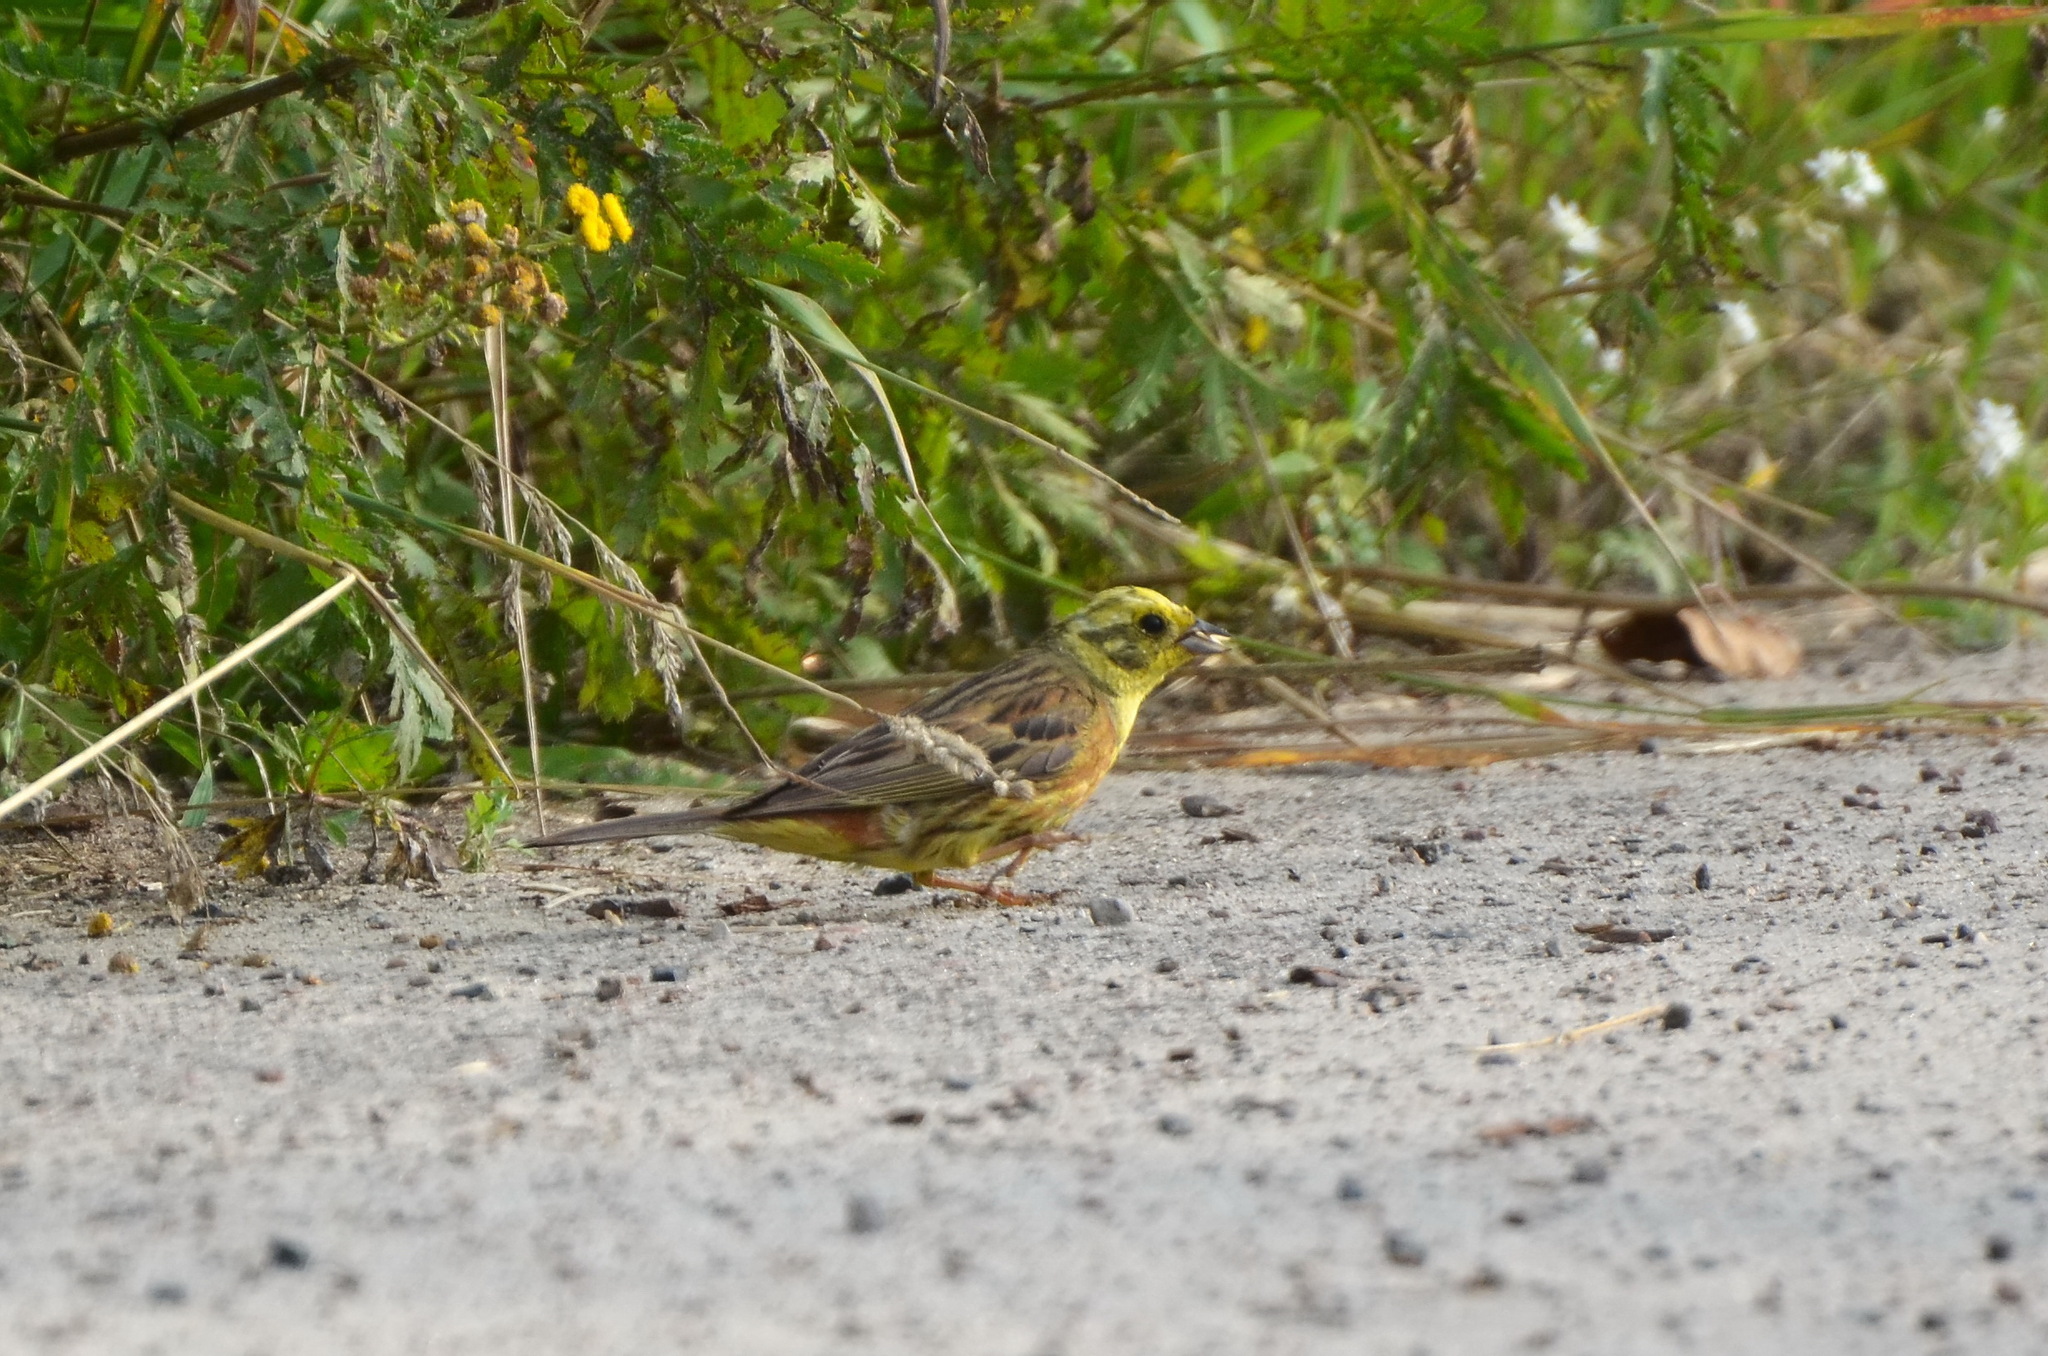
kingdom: Animalia
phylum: Chordata
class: Aves
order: Passeriformes
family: Emberizidae
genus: Emberiza
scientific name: Emberiza citrinella
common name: Yellowhammer
